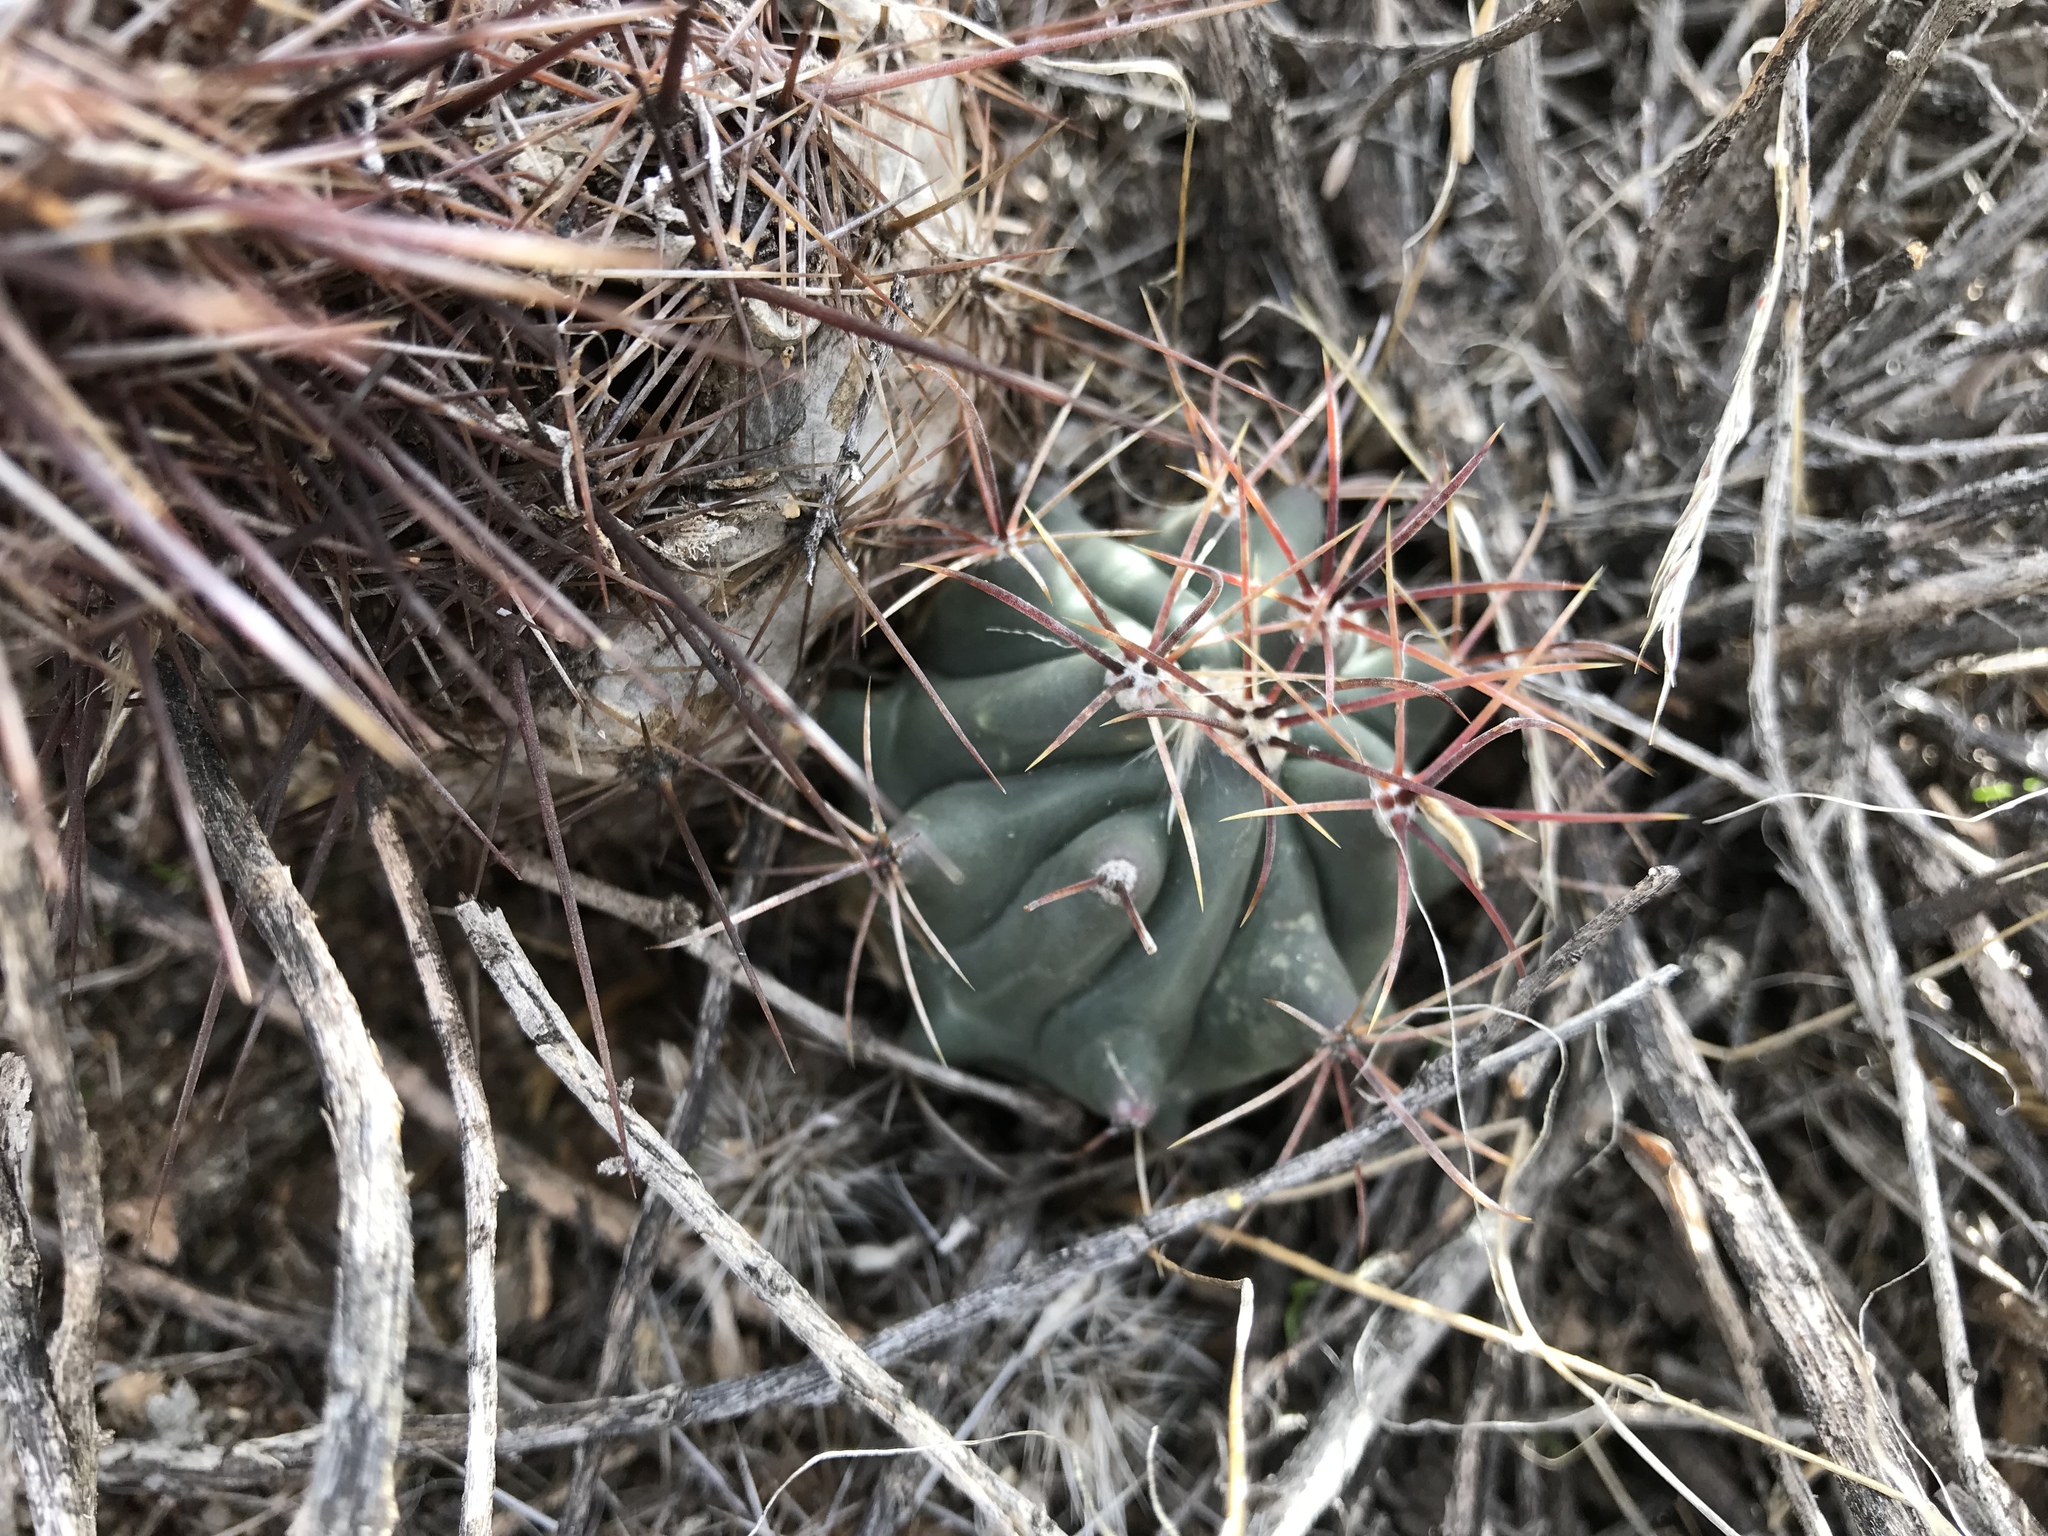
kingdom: Plantae
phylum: Tracheophyta
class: Magnoliopsida
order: Caryophyllales
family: Cactaceae
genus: Ferocactus
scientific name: Ferocactus wislizeni
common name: Candy barrel cactus
